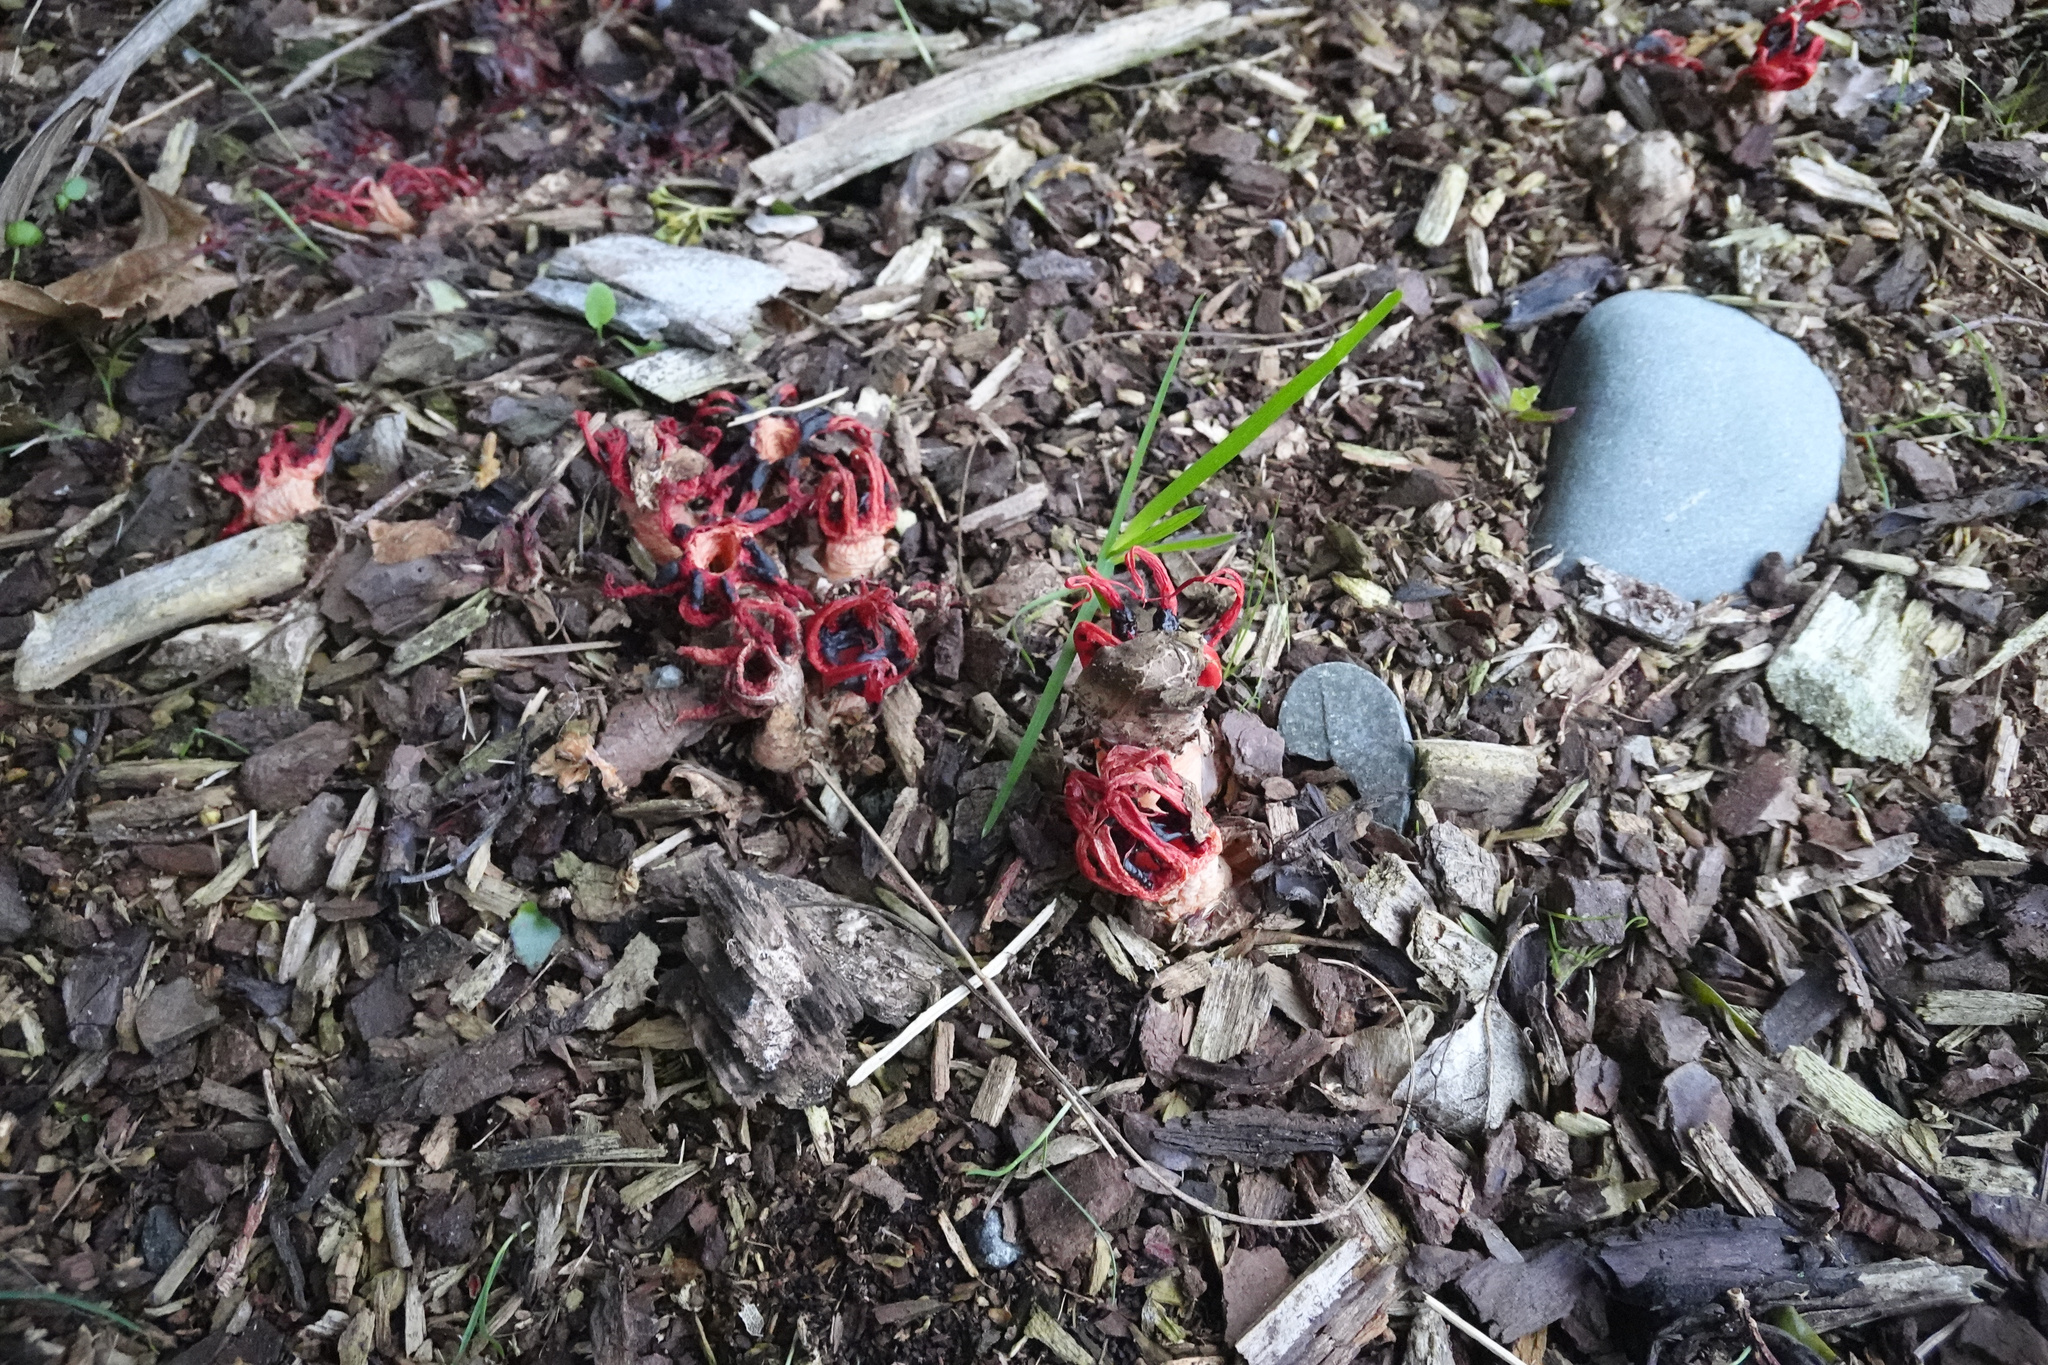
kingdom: Fungi
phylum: Basidiomycota
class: Agaricomycetes
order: Phallales
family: Phallaceae
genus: Aseroe
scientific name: Aseroe rubra
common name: Starfish fungus
